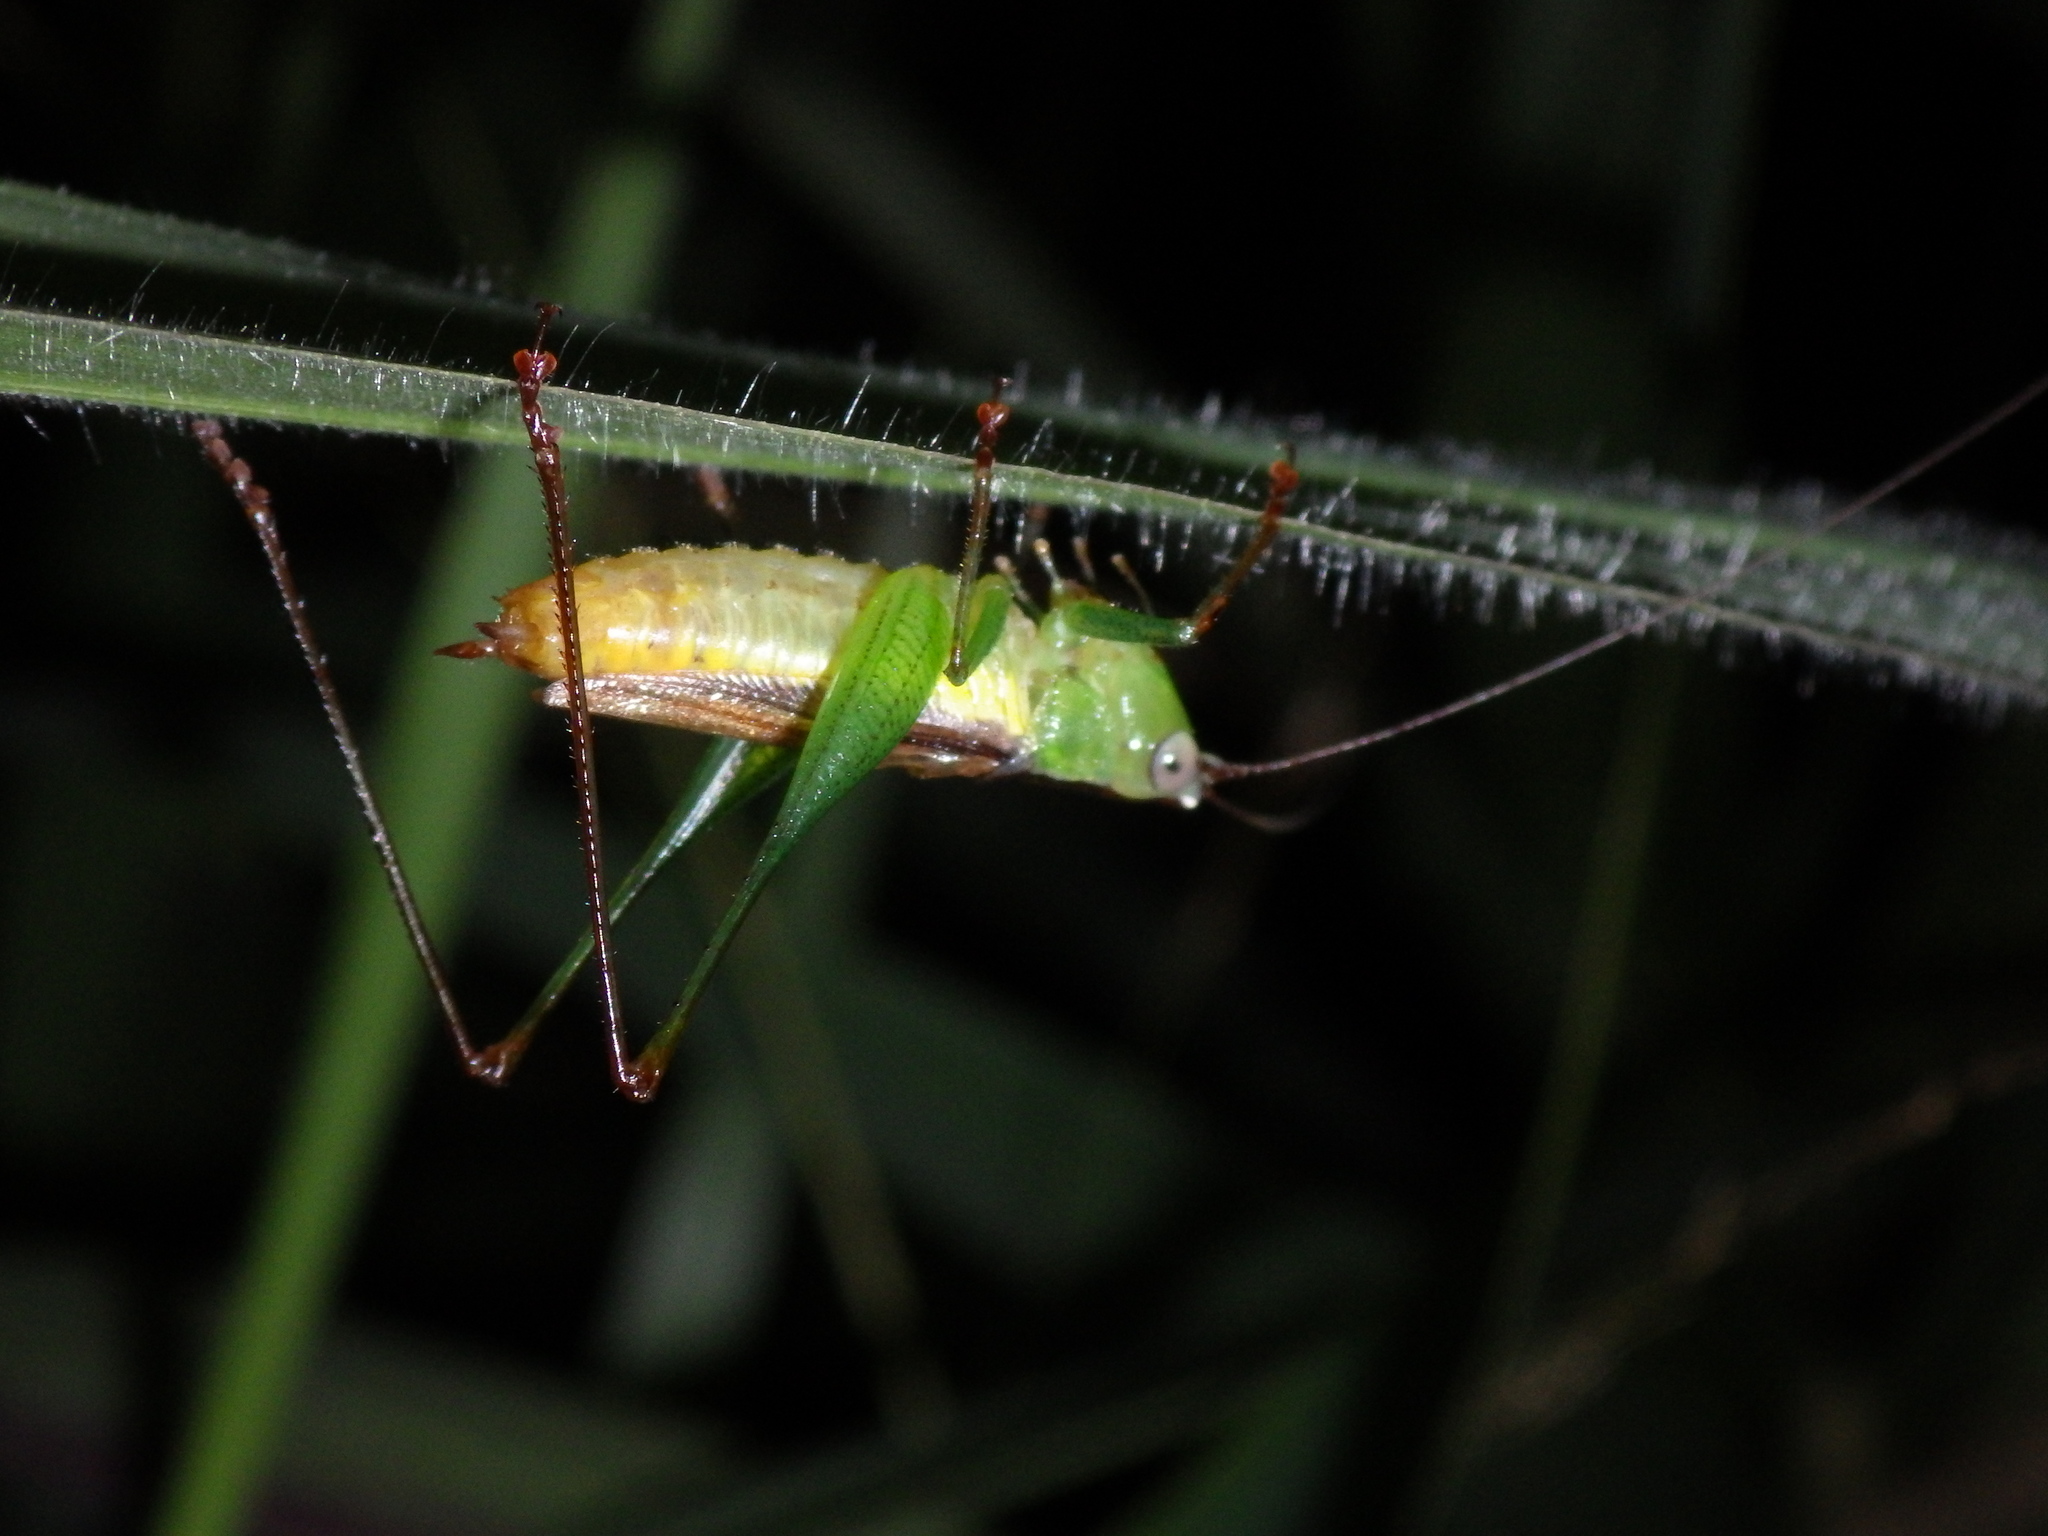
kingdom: Animalia
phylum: Arthropoda
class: Insecta
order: Orthoptera
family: Tettigoniidae
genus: Conocephalus
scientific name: Conocephalus redtenbacheri
